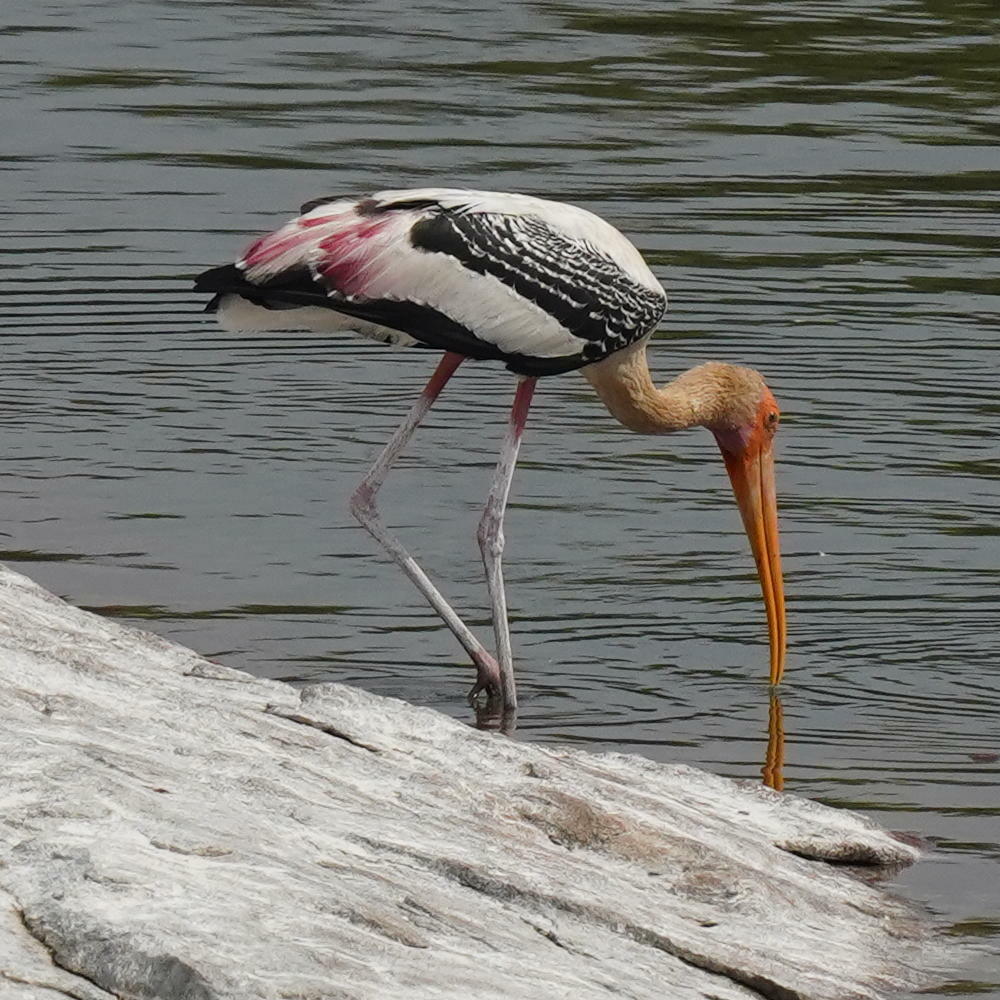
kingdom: Animalia
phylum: Chordata
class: Aves
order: Ciconiiformes
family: Ciconiidae
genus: Mycteria
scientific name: Mycteria leucocephala
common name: Painted stork
